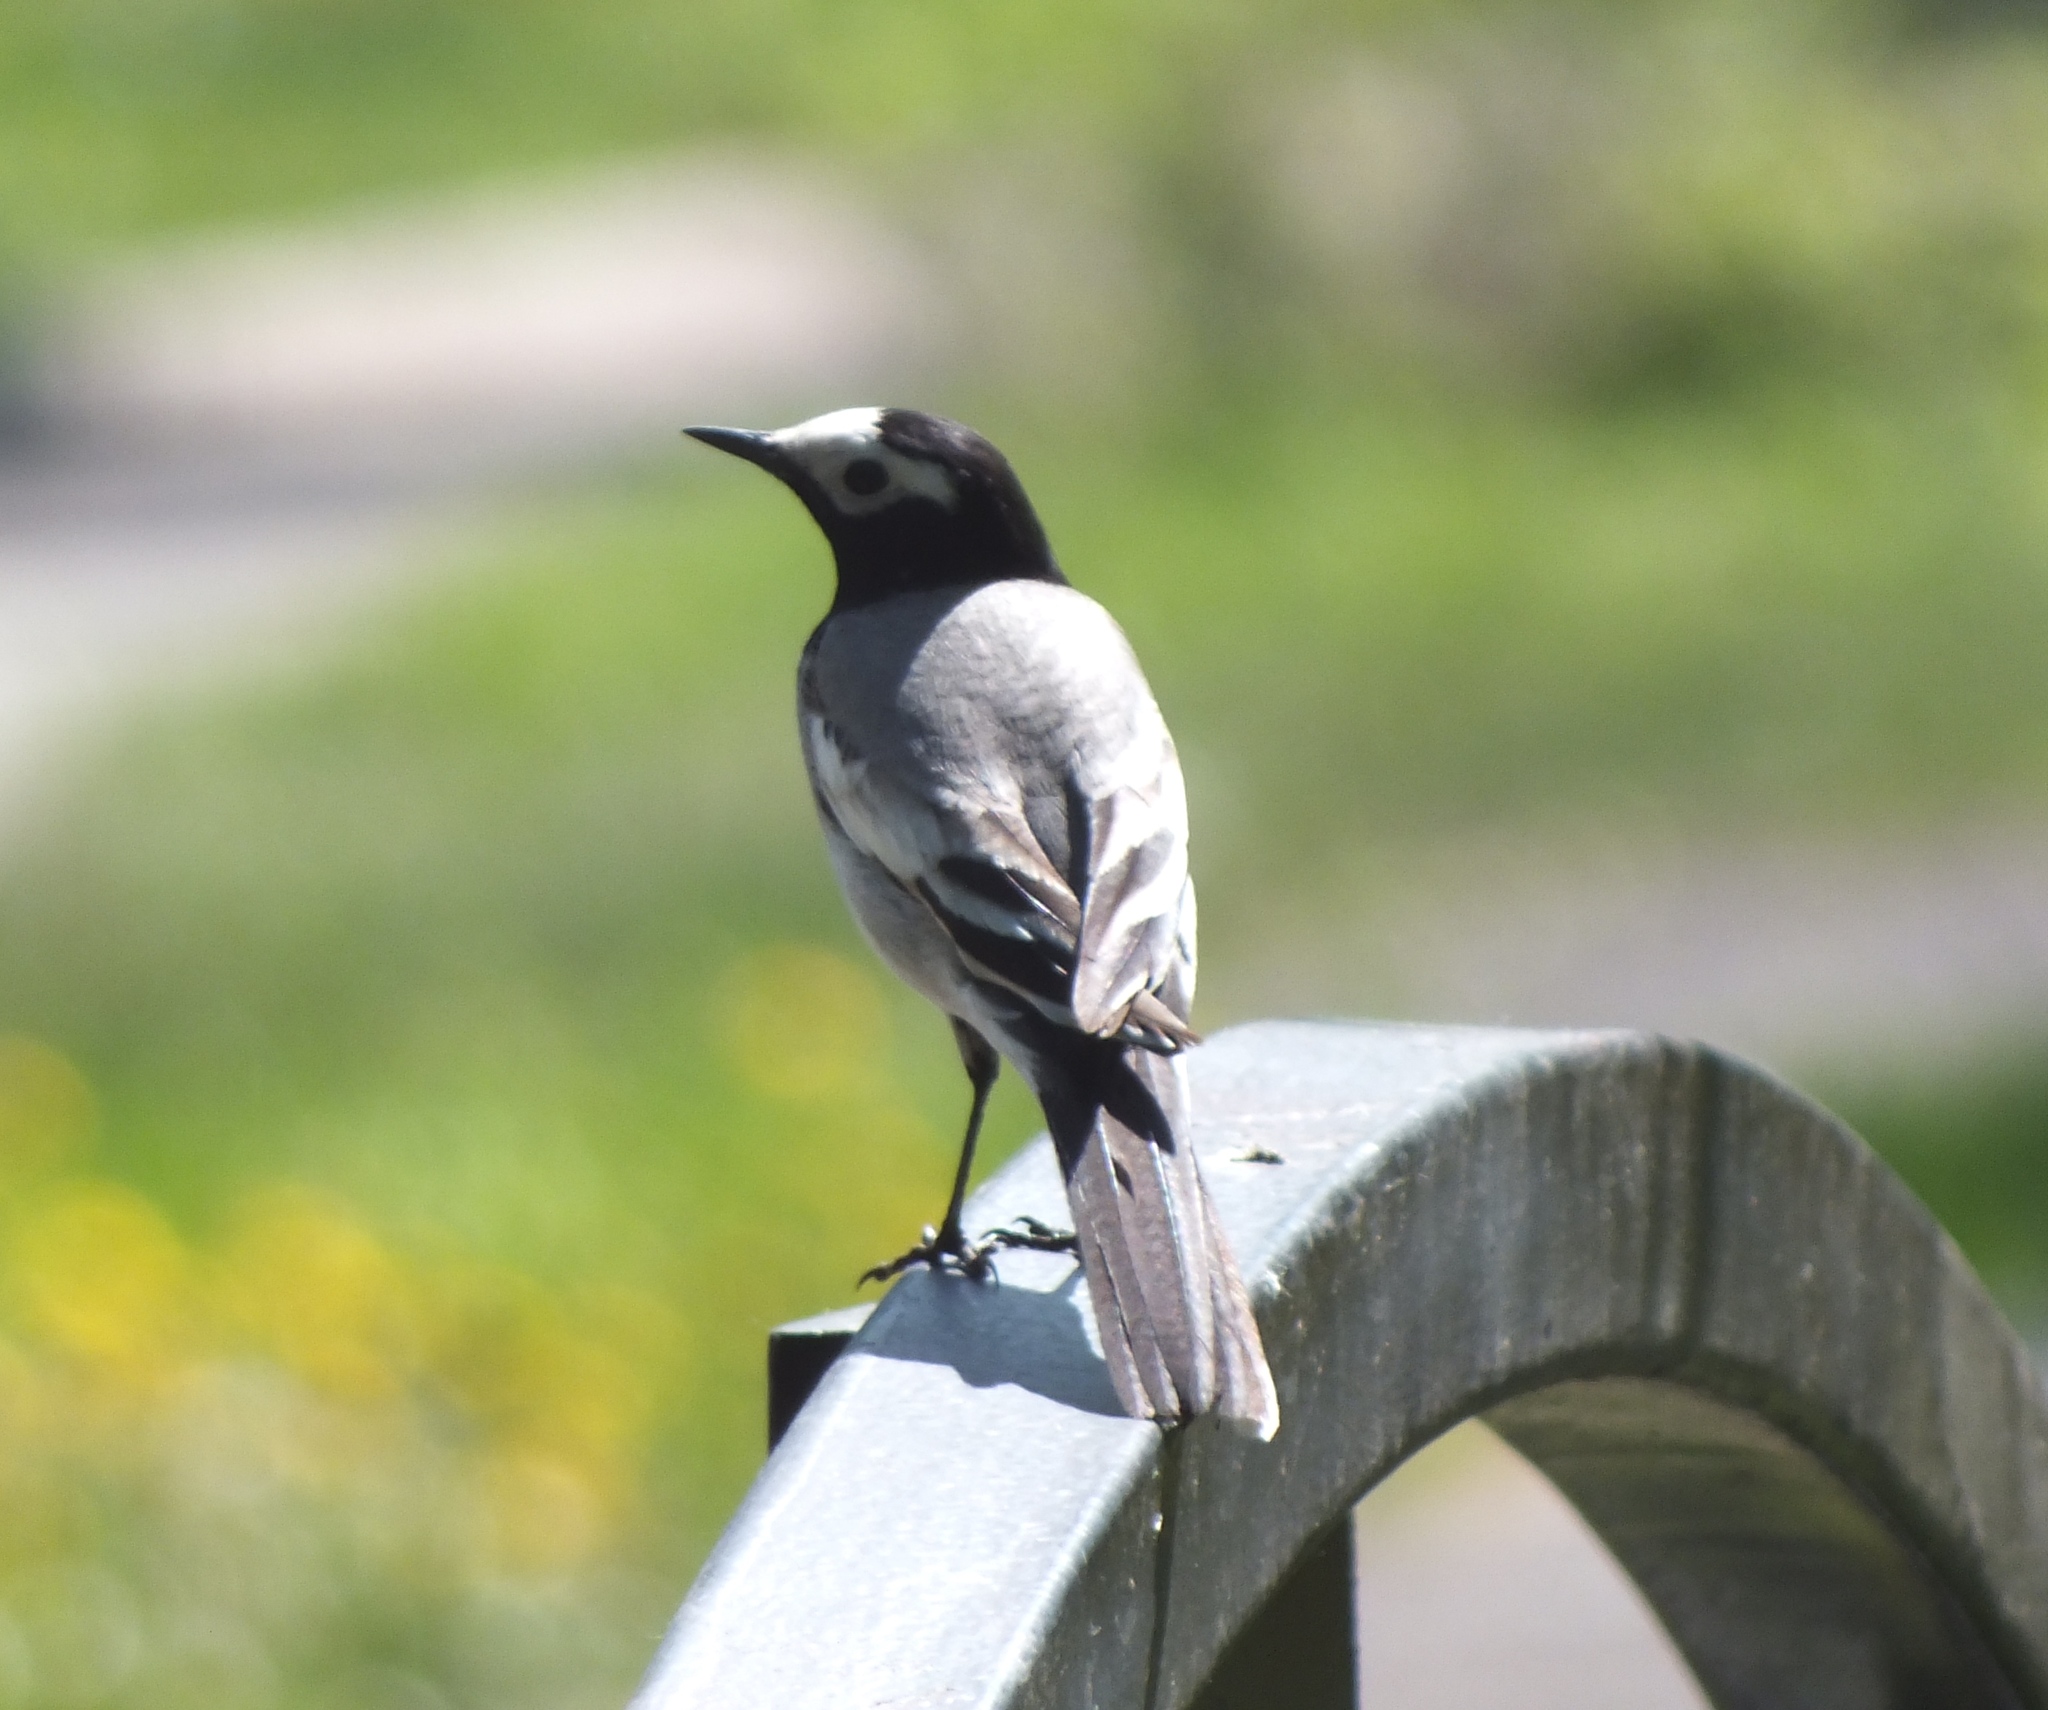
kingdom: Animalia
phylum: Chordata
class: Aves
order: Passeriformes
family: Motacillidae
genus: Motacilla
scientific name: Motacilla alba
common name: White wagtail
